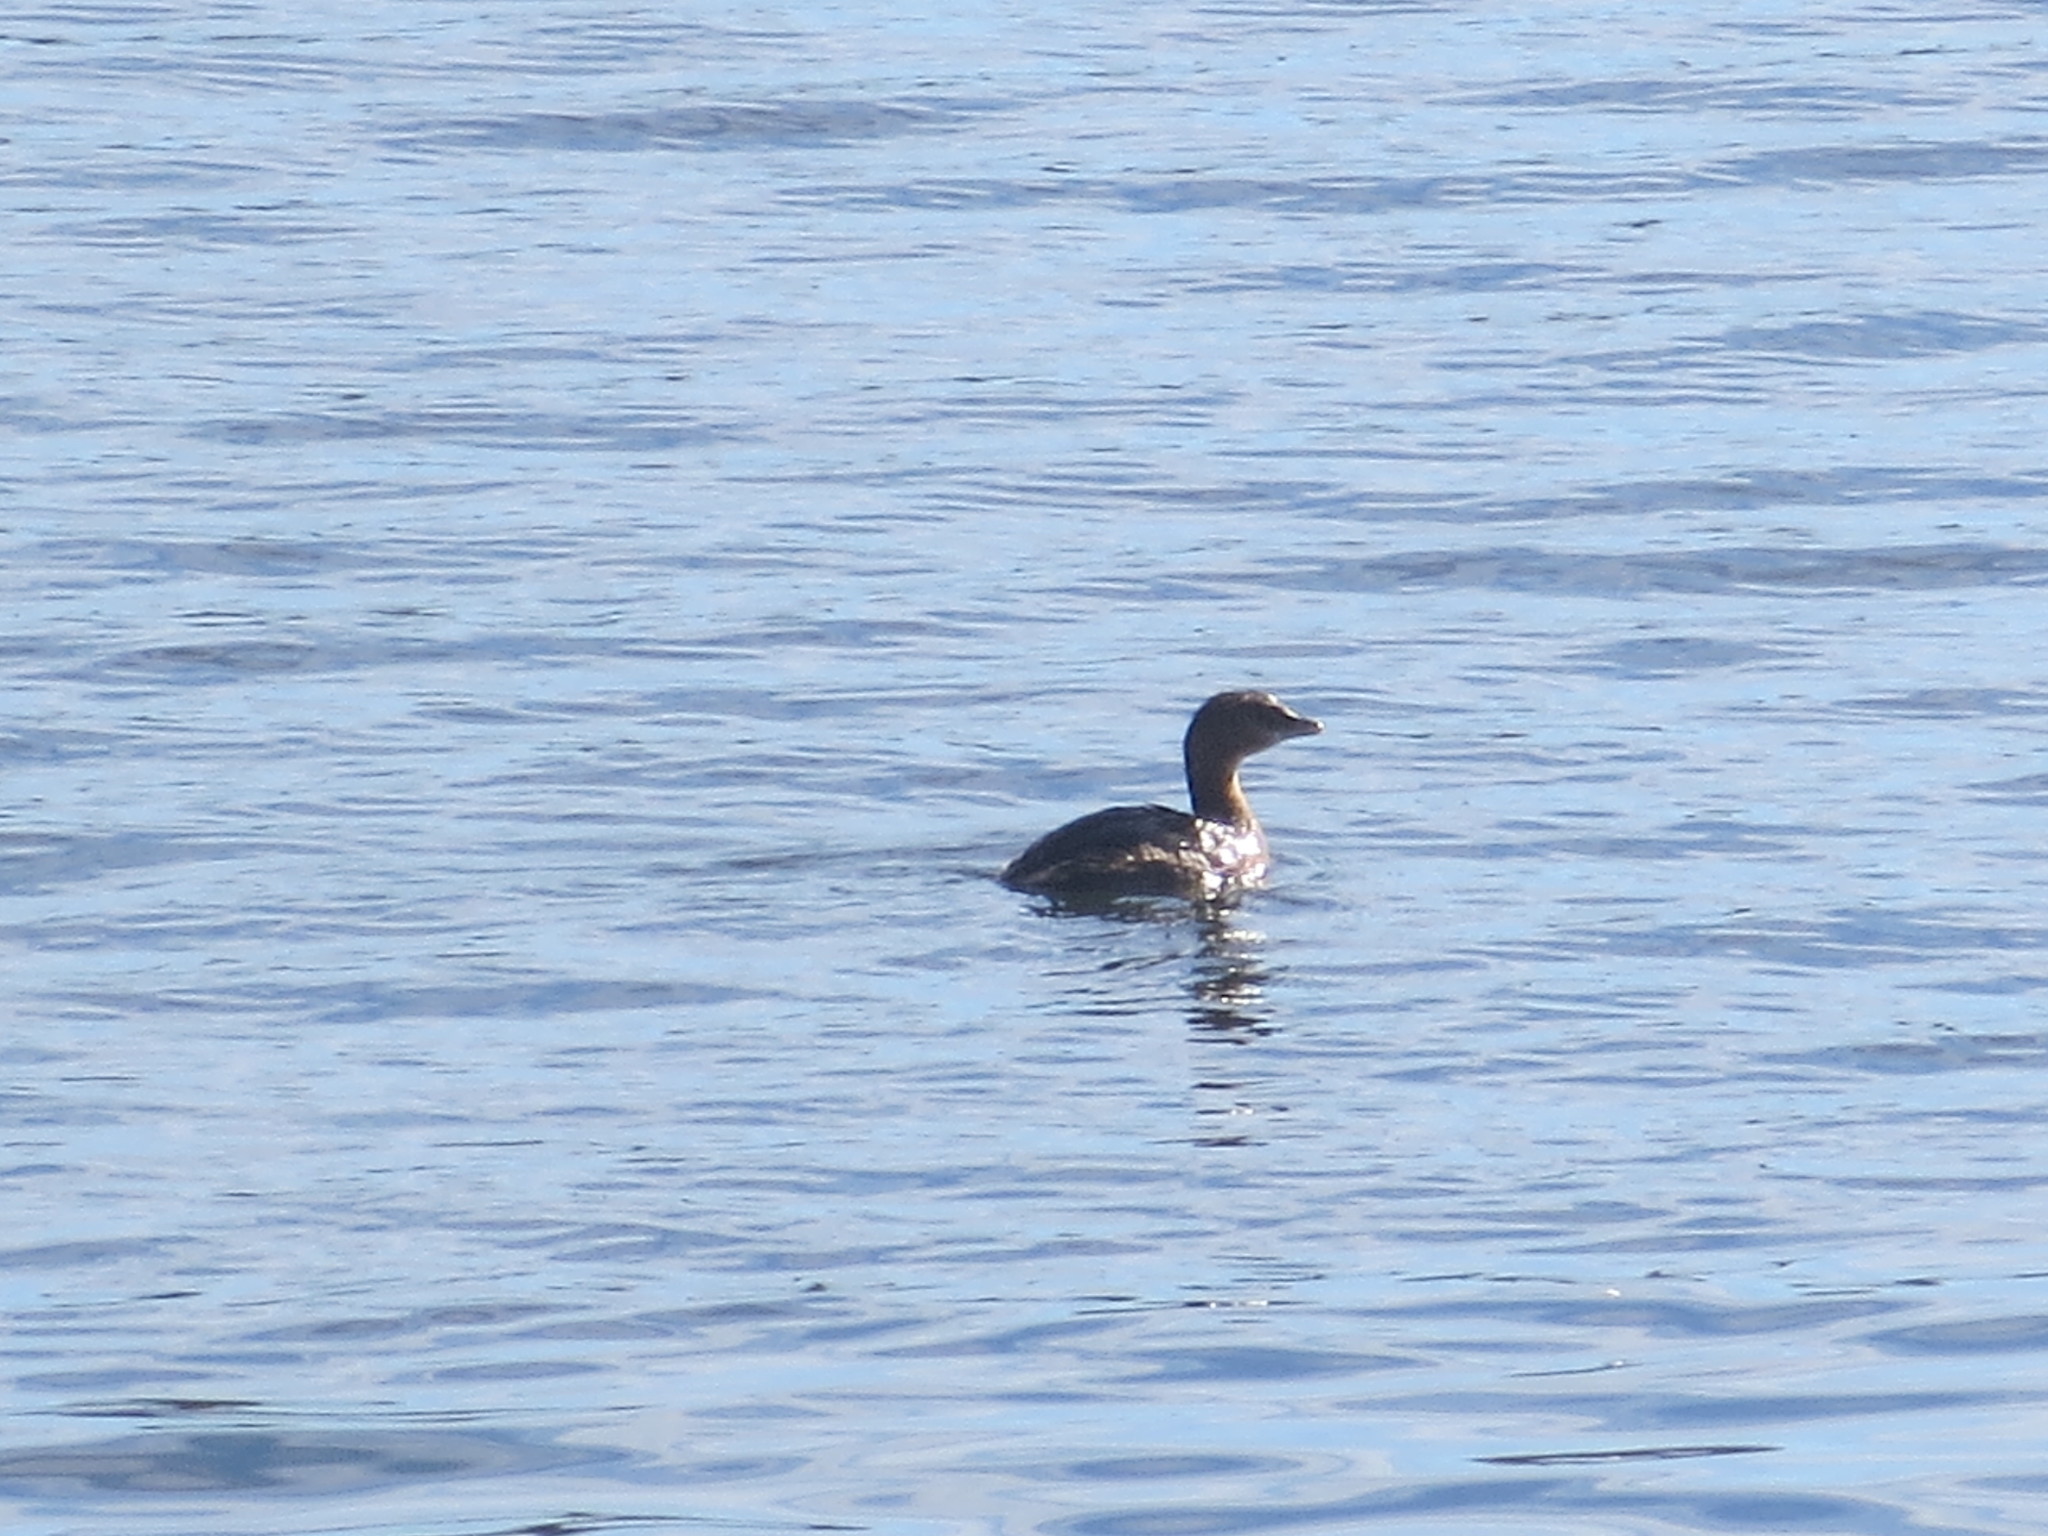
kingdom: Animalia
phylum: Chordata
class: Aves
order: Podicipediformes
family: Podicipedidae
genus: Podilymbus
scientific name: Podilymbus podiceps
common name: Pied-billed grebe
